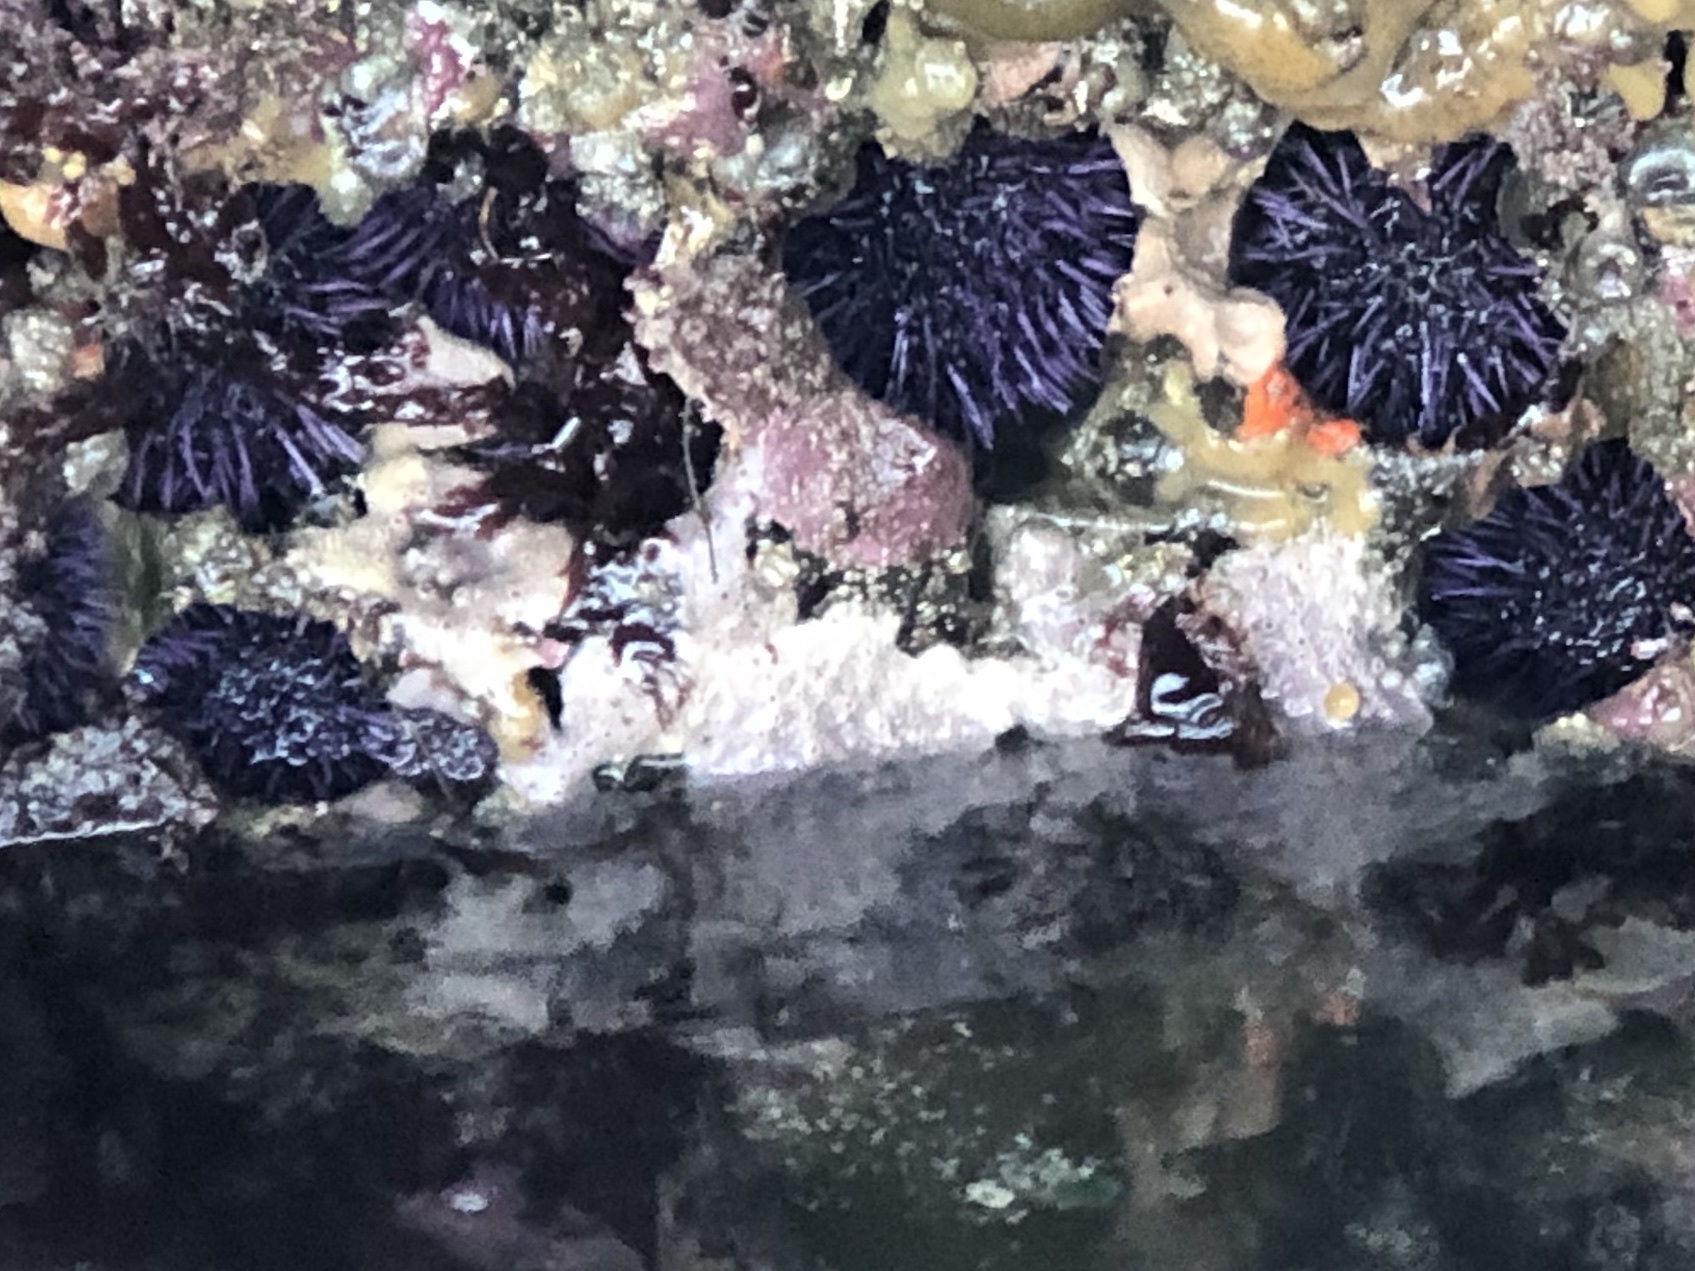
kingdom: Animalia
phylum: Echinodermata
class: Echinoidea
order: Camarodonta
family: Strongylocentrotidae
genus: Strongylocentrotus
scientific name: Strongylocentrotus purpuratus
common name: Purple sea urchin
